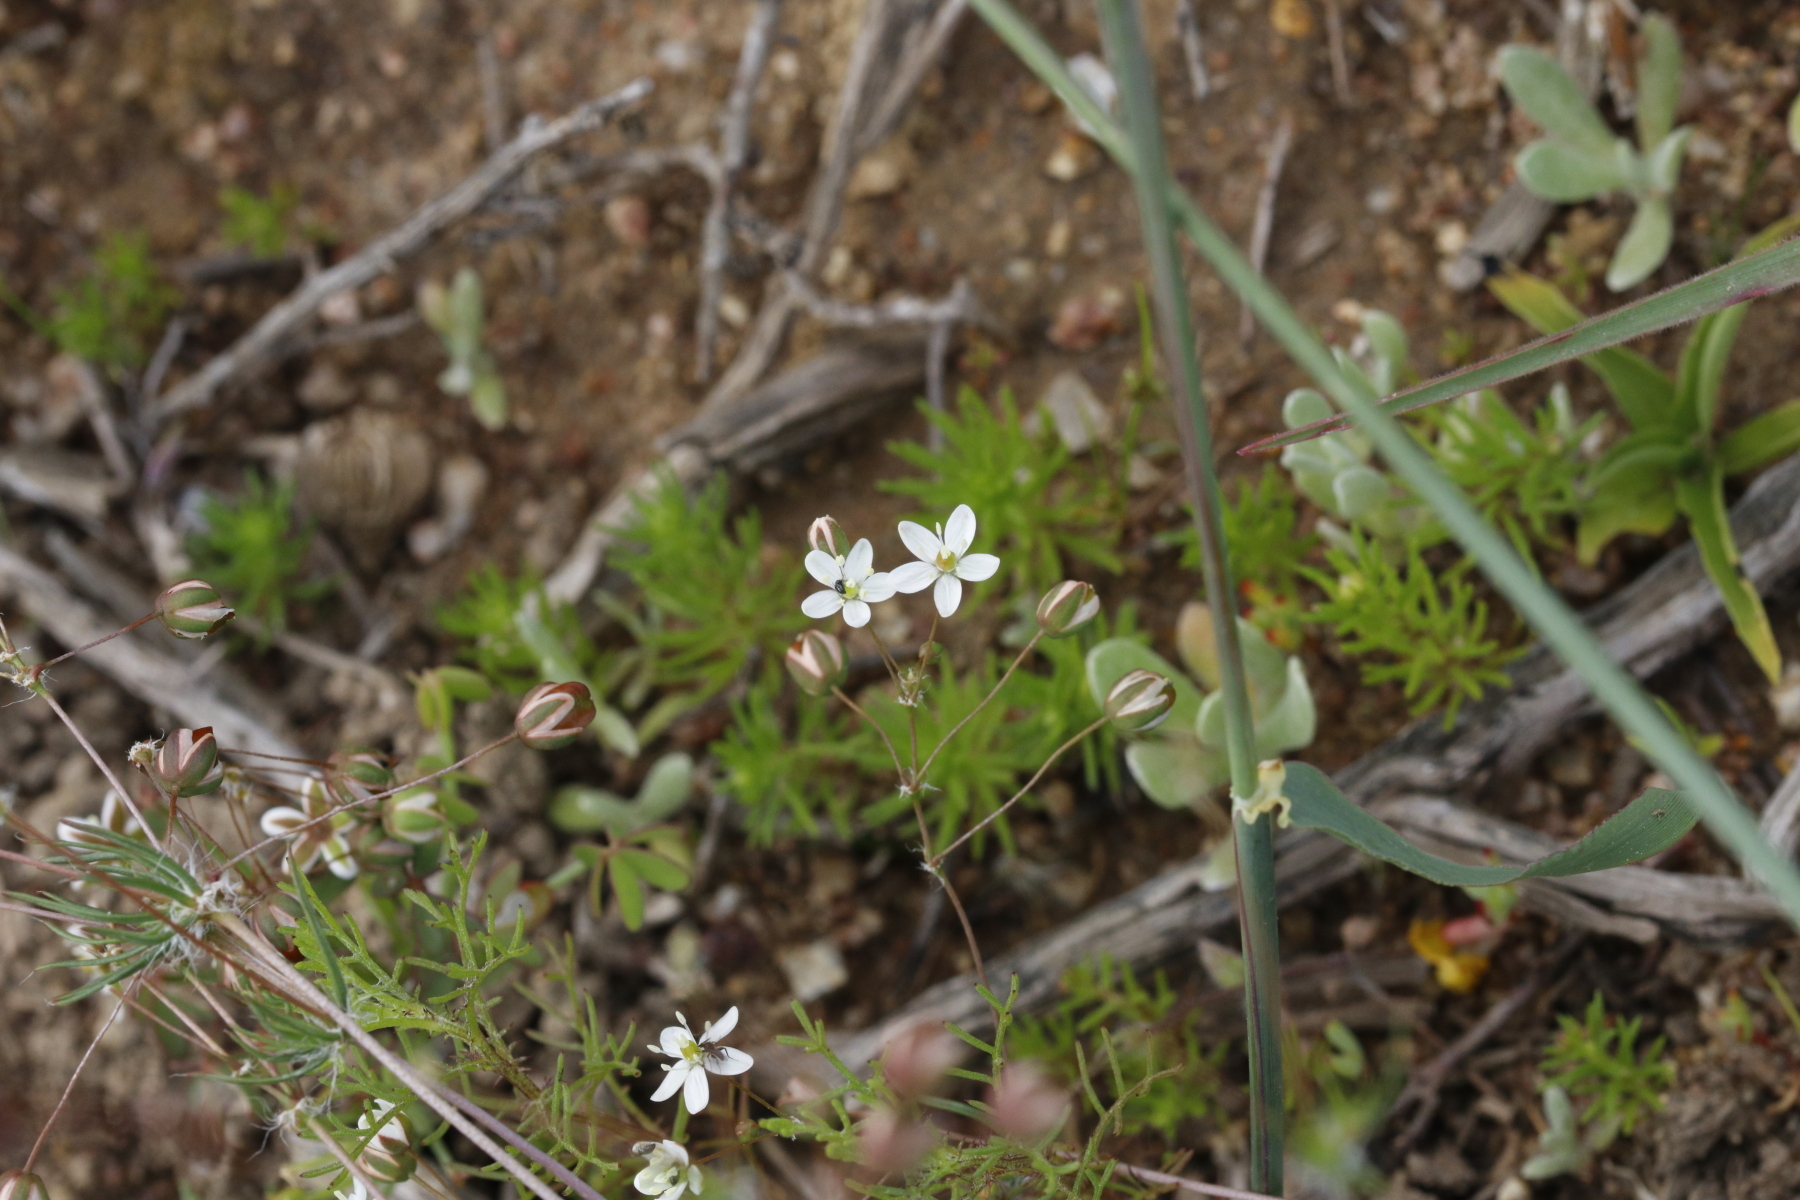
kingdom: Plantae
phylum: Tracheophyta
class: Magnoliopsida
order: Caryophyllales
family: Molluginaceae
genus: Pharnaceum
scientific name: Pharnaceum elongatum
